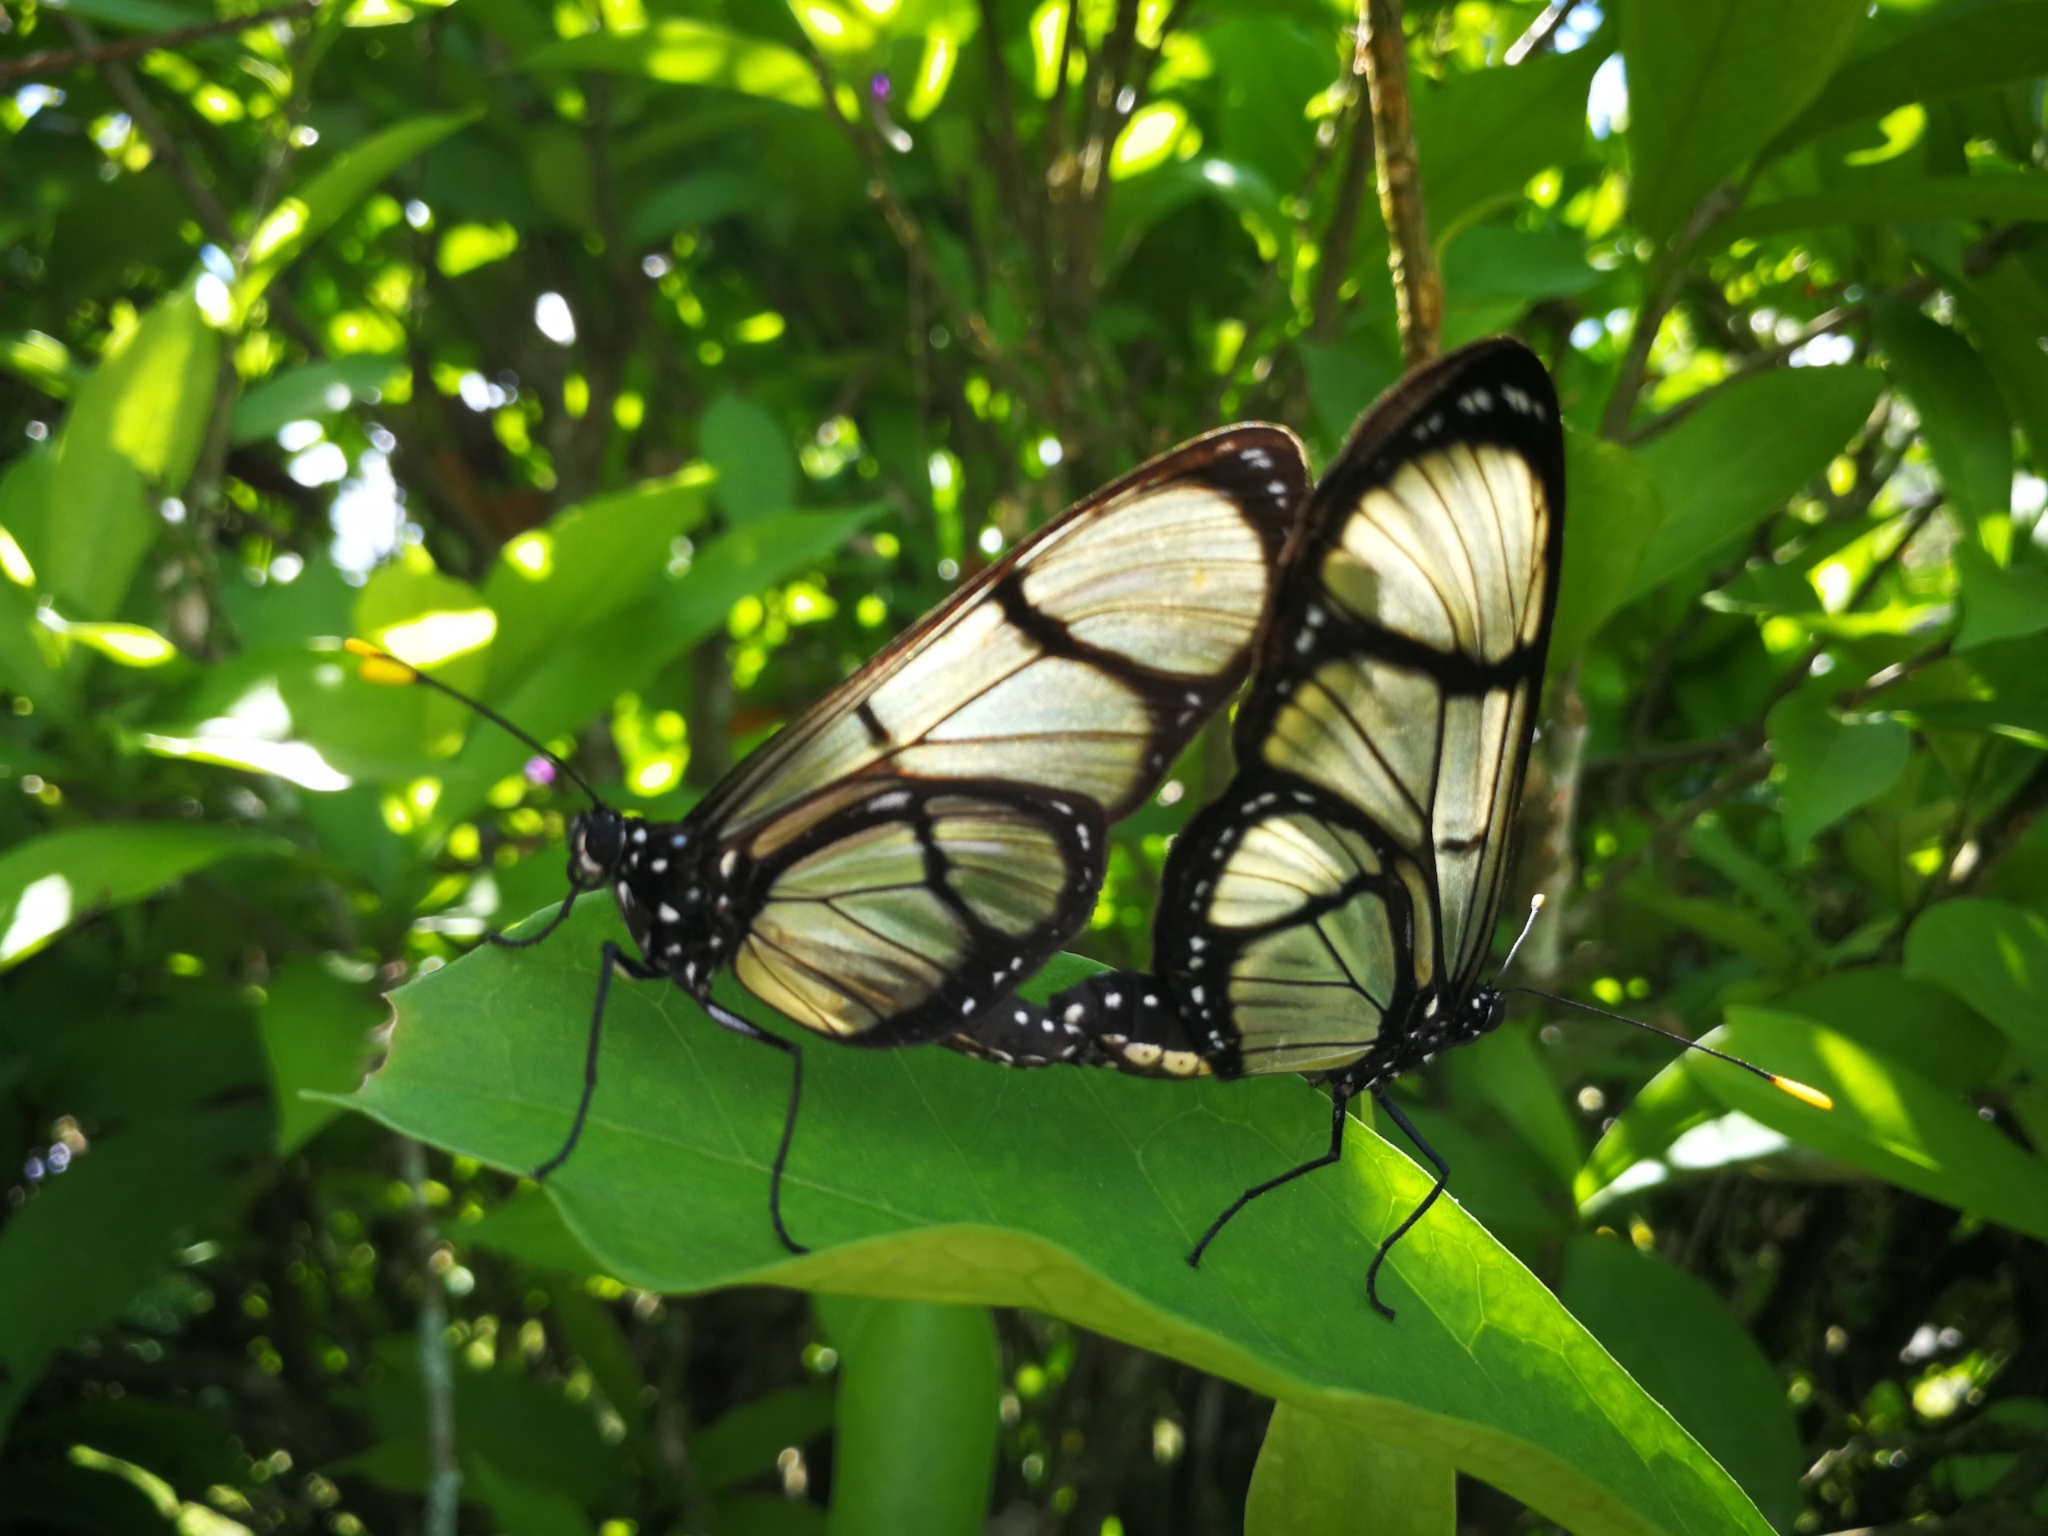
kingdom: Animalia
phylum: Arthropoda
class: Insecta
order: Lepidoptera
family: Nymphalidae
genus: Methona
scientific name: Methona confusa
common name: Confusa tigerwing
